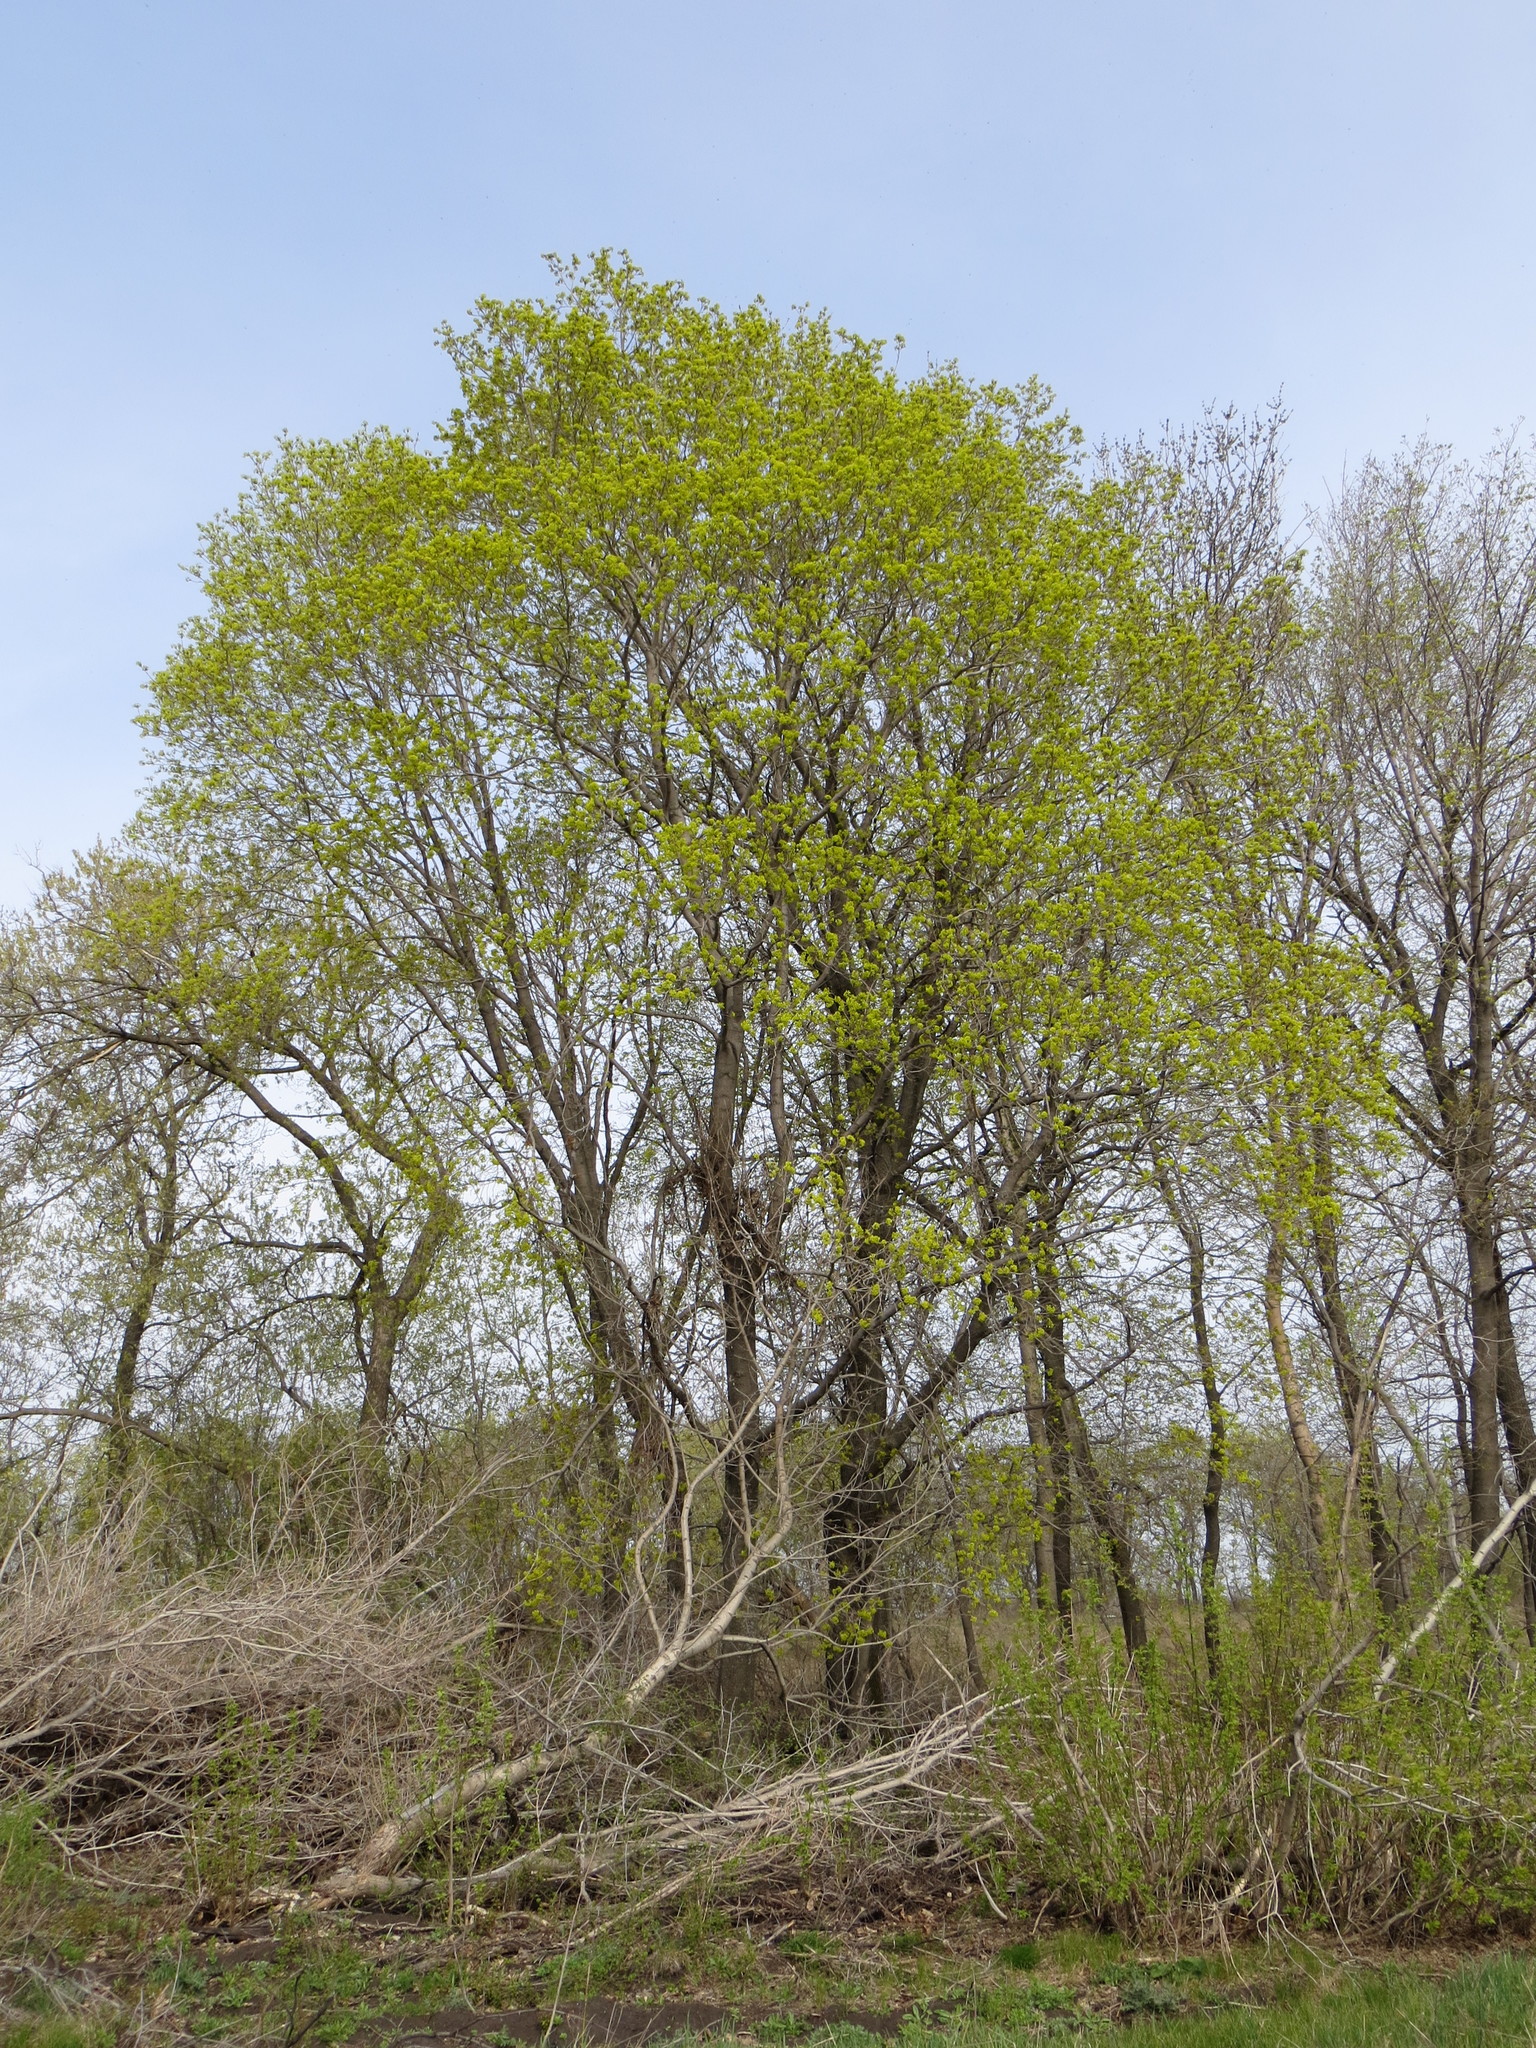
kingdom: Plantae
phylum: Tracheophyta
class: Magnoliopsida
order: Sapindales
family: Sapindaceae
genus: Acer
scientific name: Acer platanoides
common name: Norway maple
